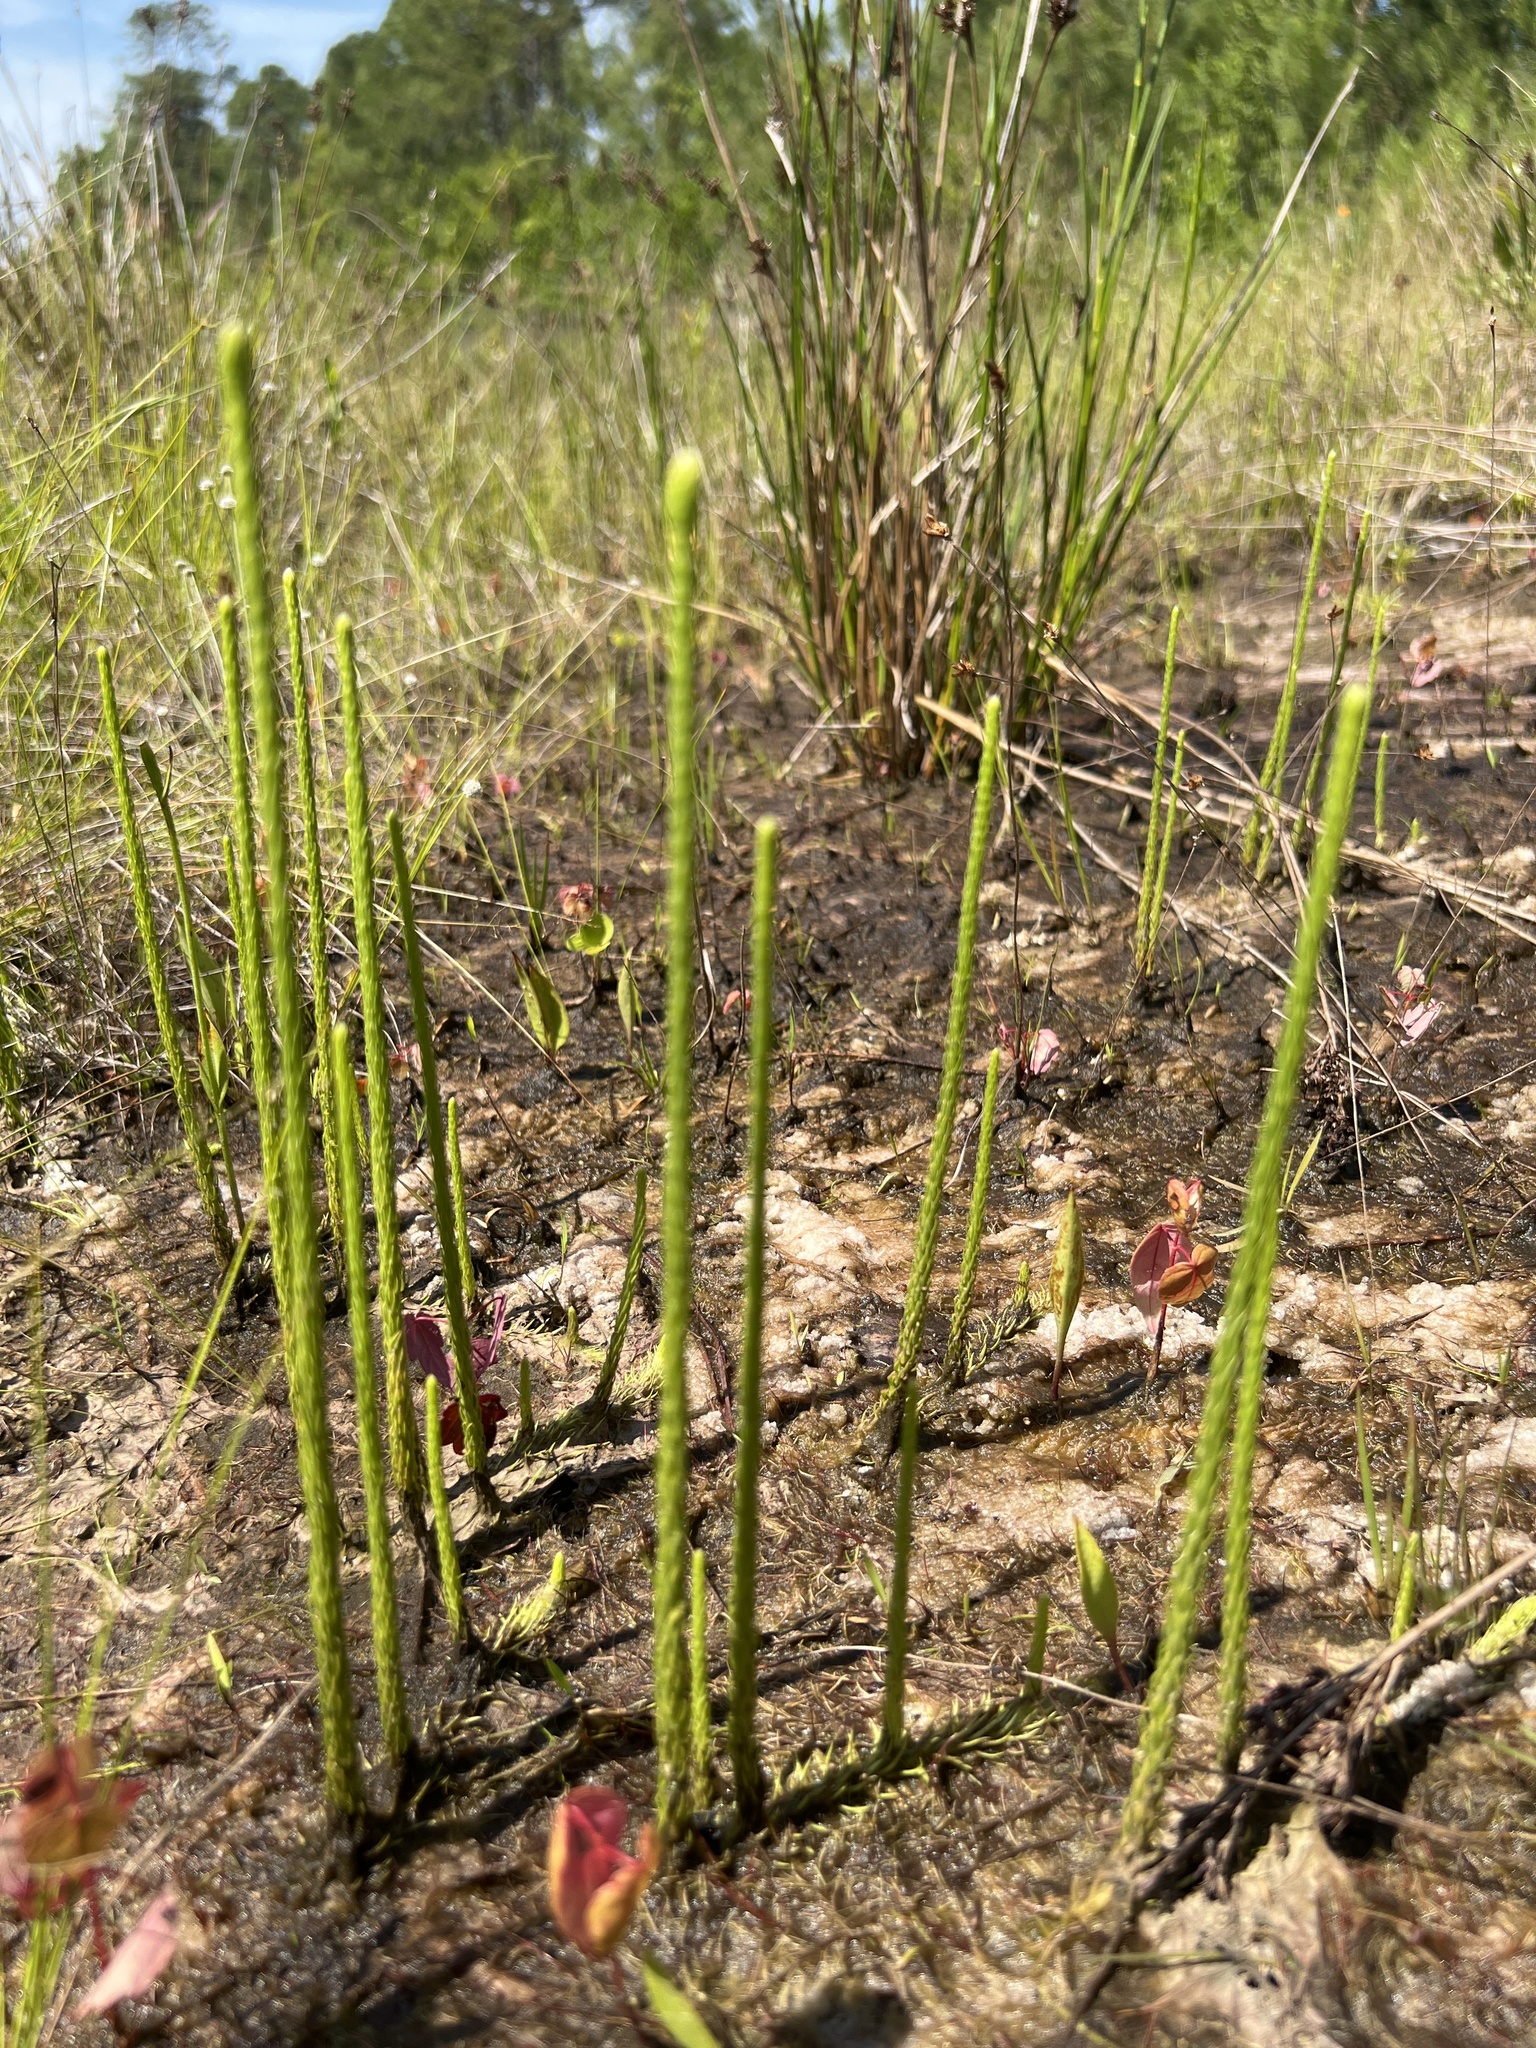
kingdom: Plantae
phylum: Tracheophyta
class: Lycopodiopsida
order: Lycopodiales
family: Lycopodiaceae
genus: Lycopodiella
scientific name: Lycopodiella appressa
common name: Appressed bog clubmoss
